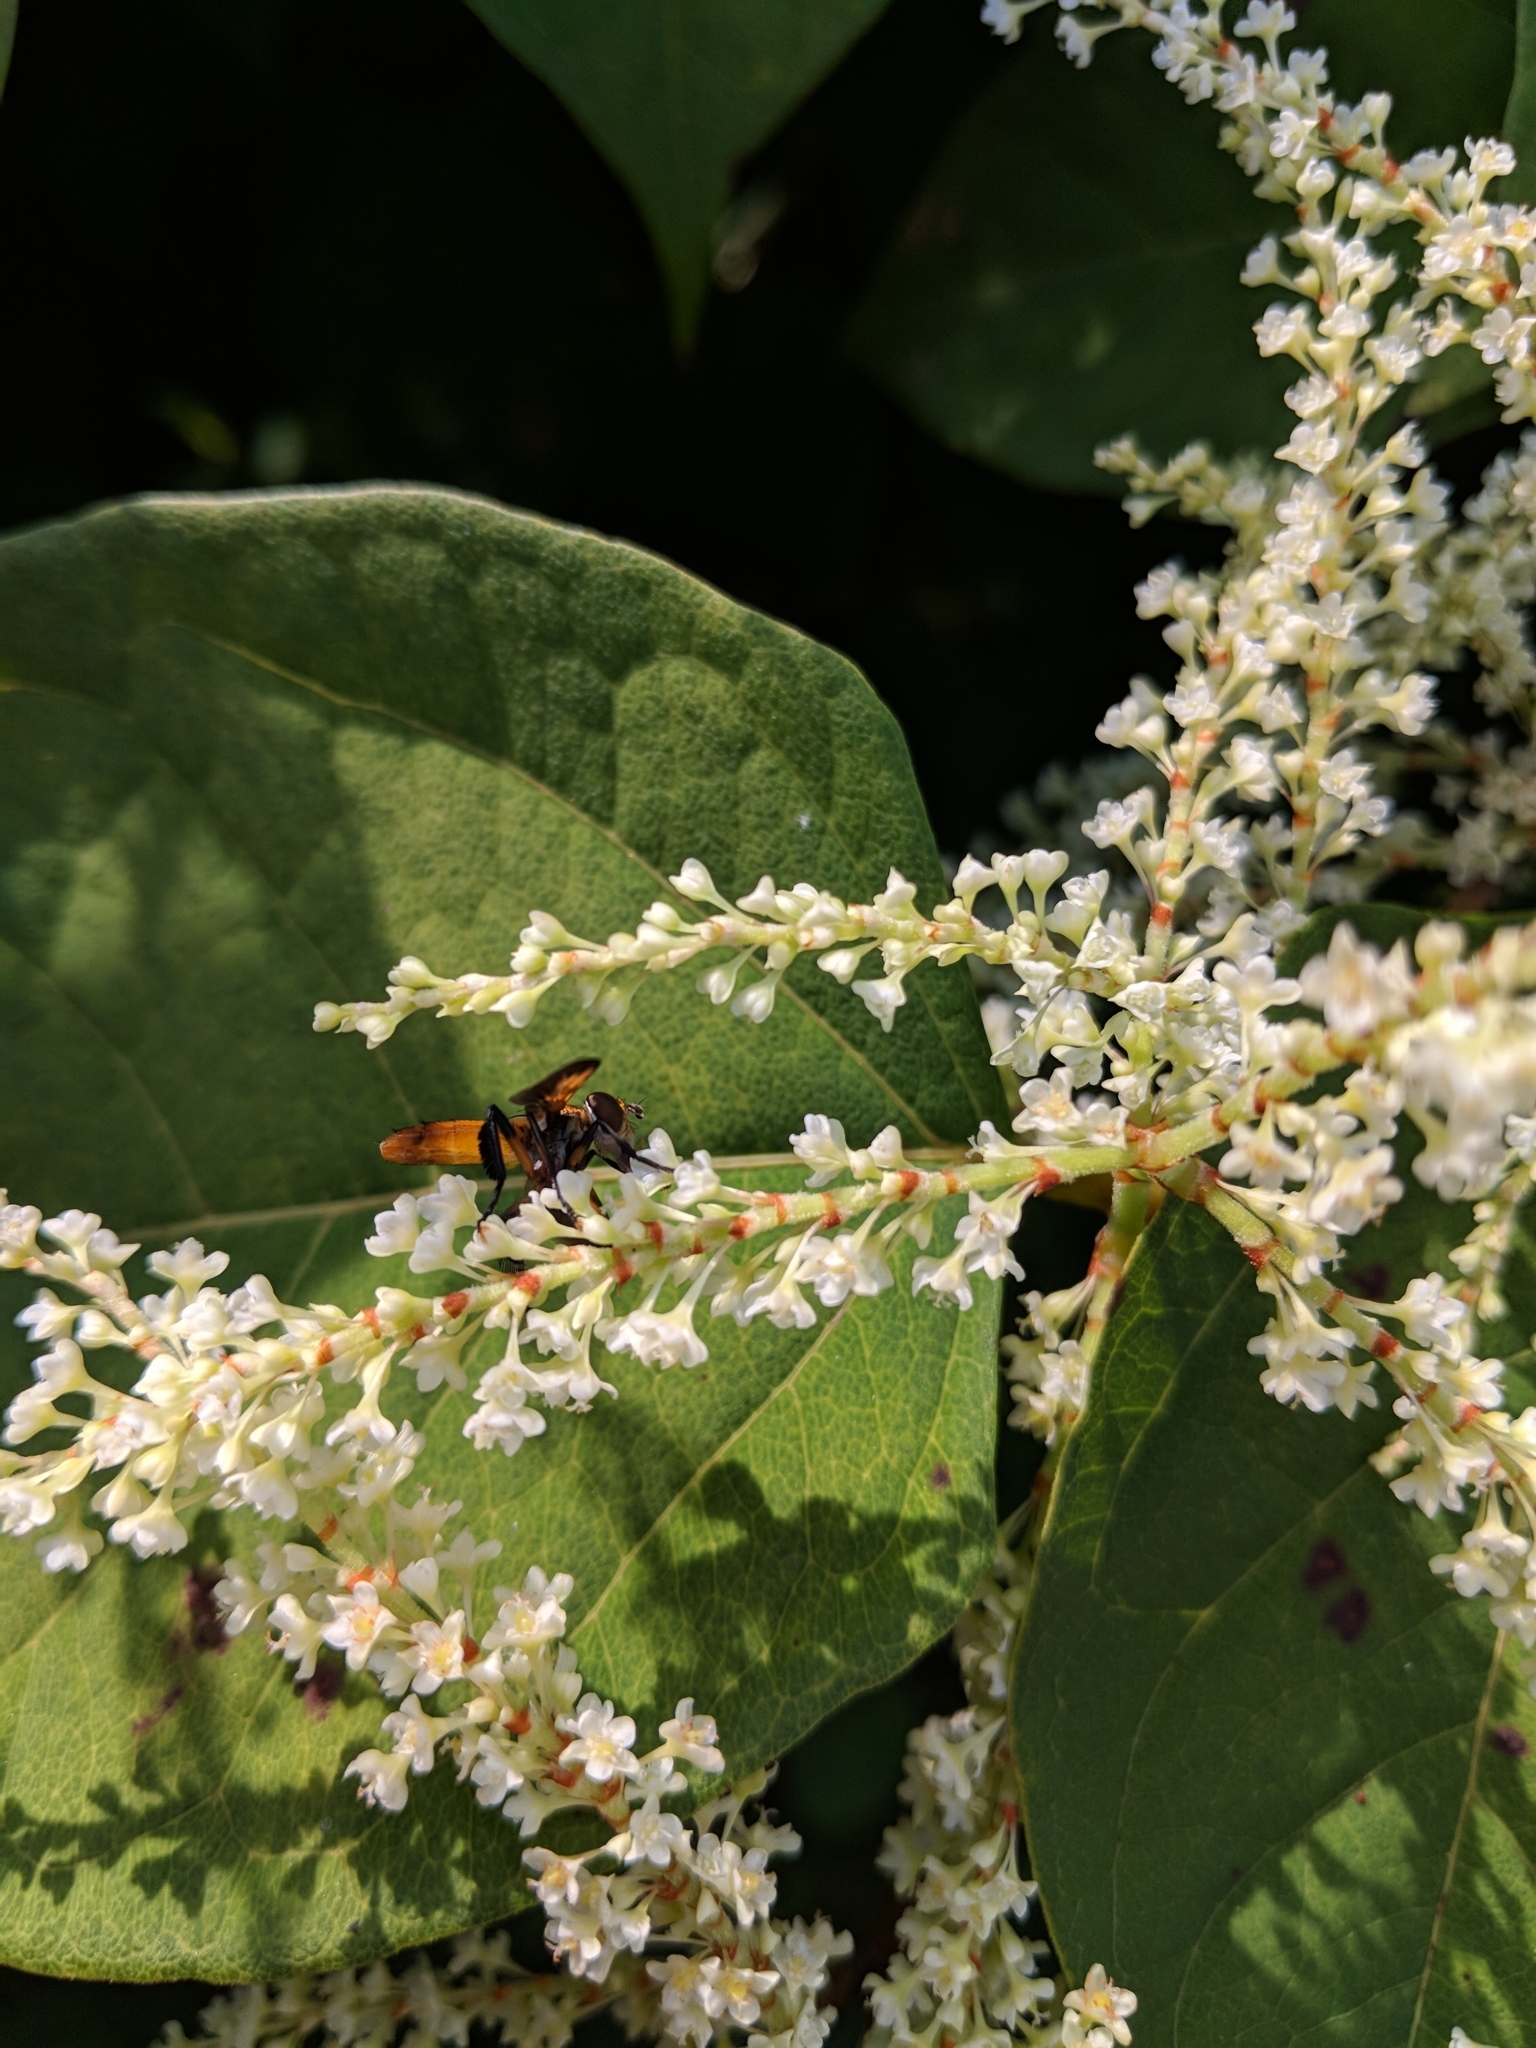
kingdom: Animalia
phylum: Arthropoda
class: Insecta
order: Diptera
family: Tachinidae
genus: Trichopoda
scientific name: Trichopoda pennipes
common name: Tachinid fly
